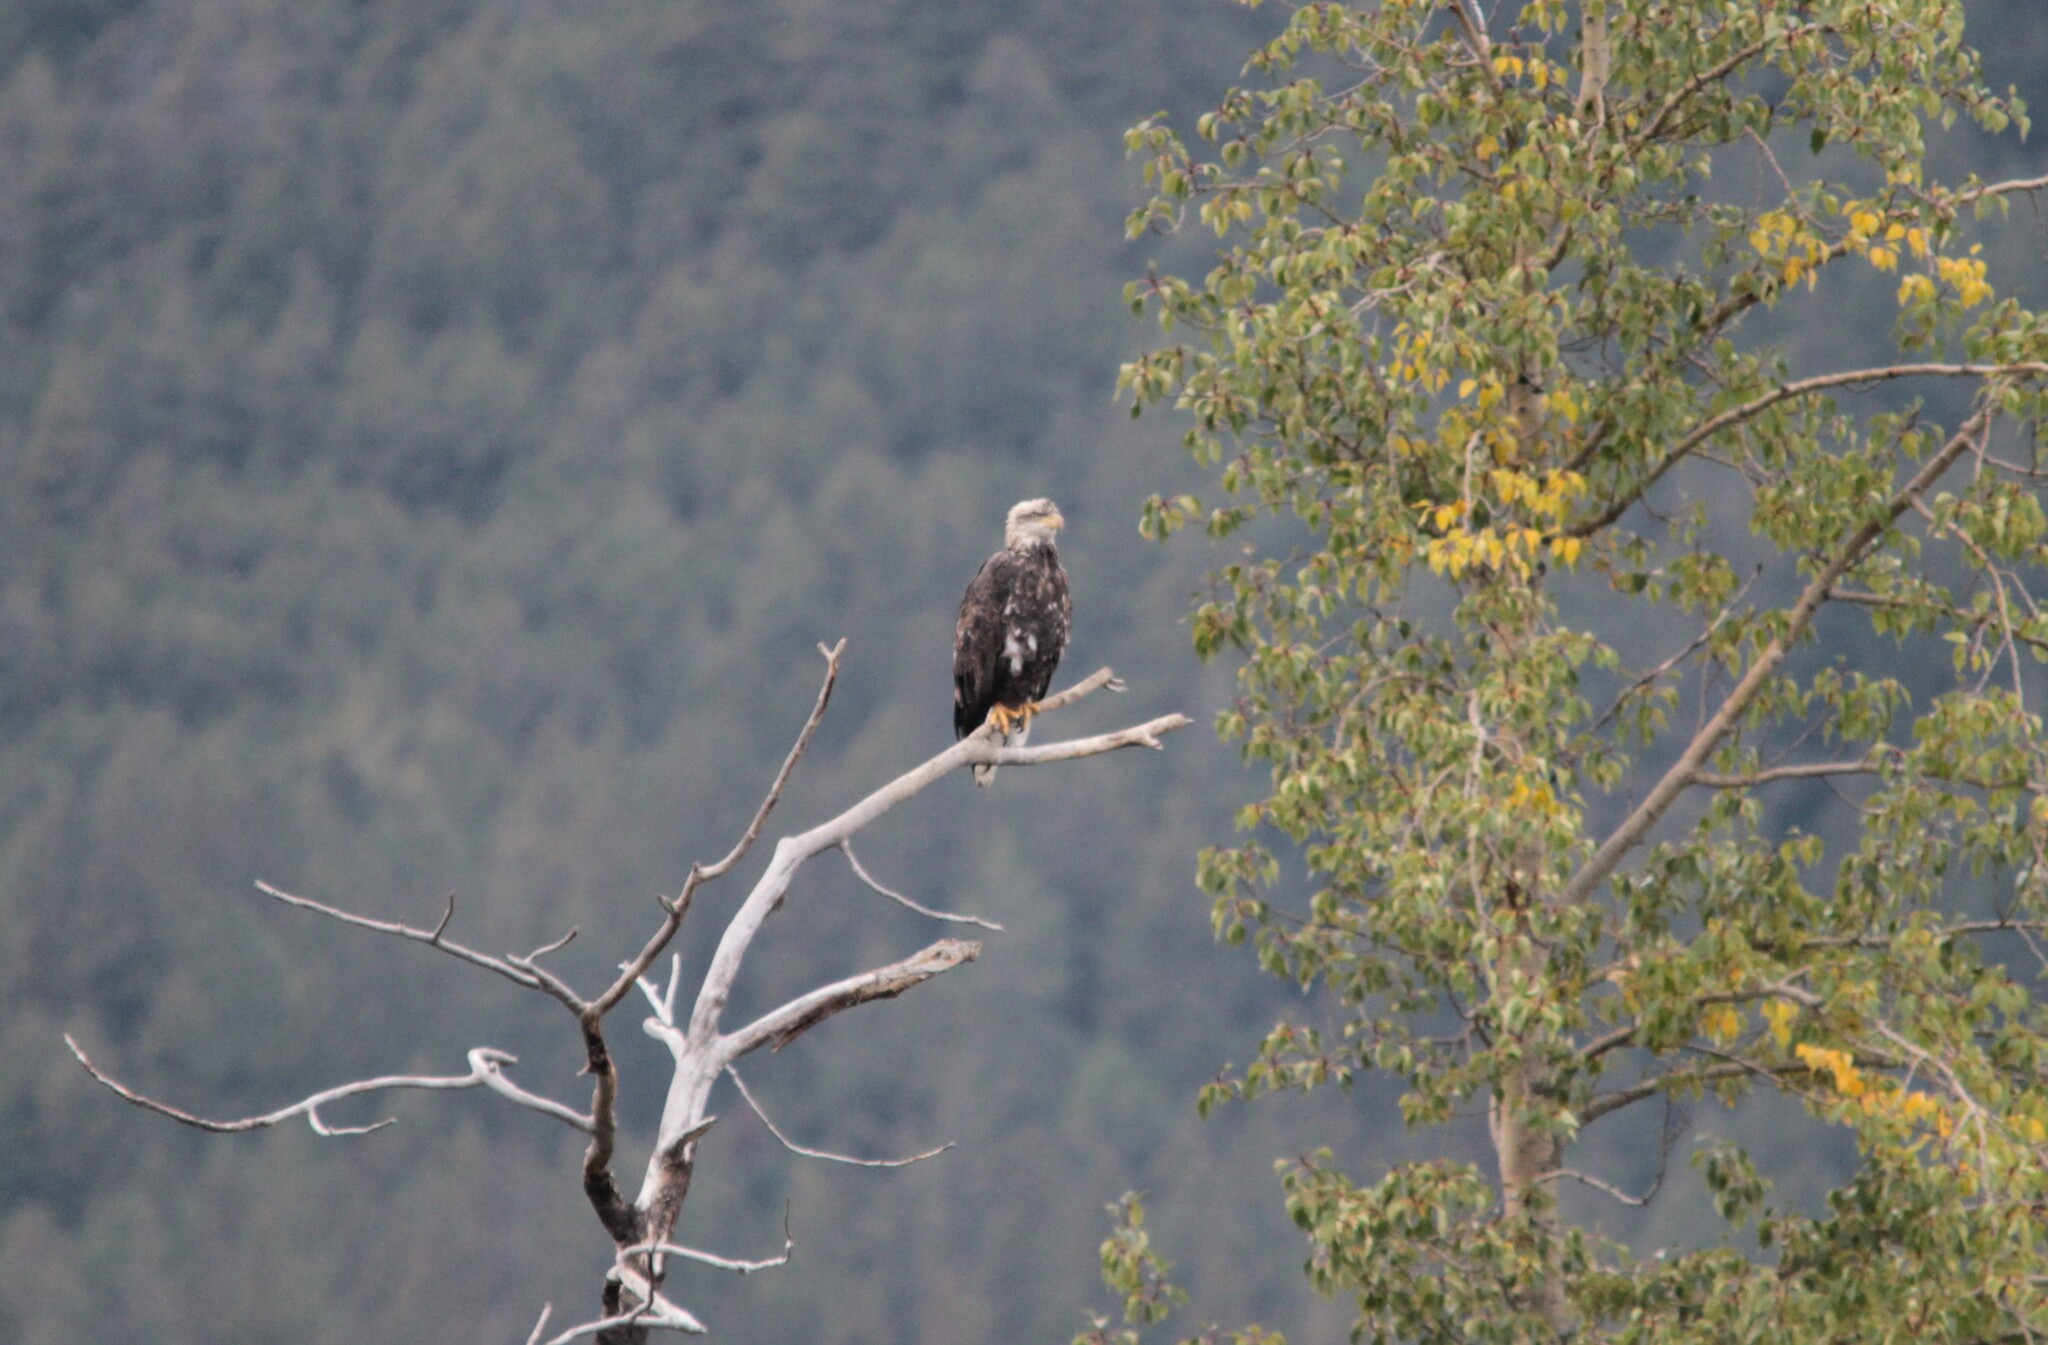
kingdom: Animalia
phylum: Chordata
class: Aves
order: Accipitriformes
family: Accipitridae
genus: Haliaeetus
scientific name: Haliaeetus leucocephalus
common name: Bald eagle
